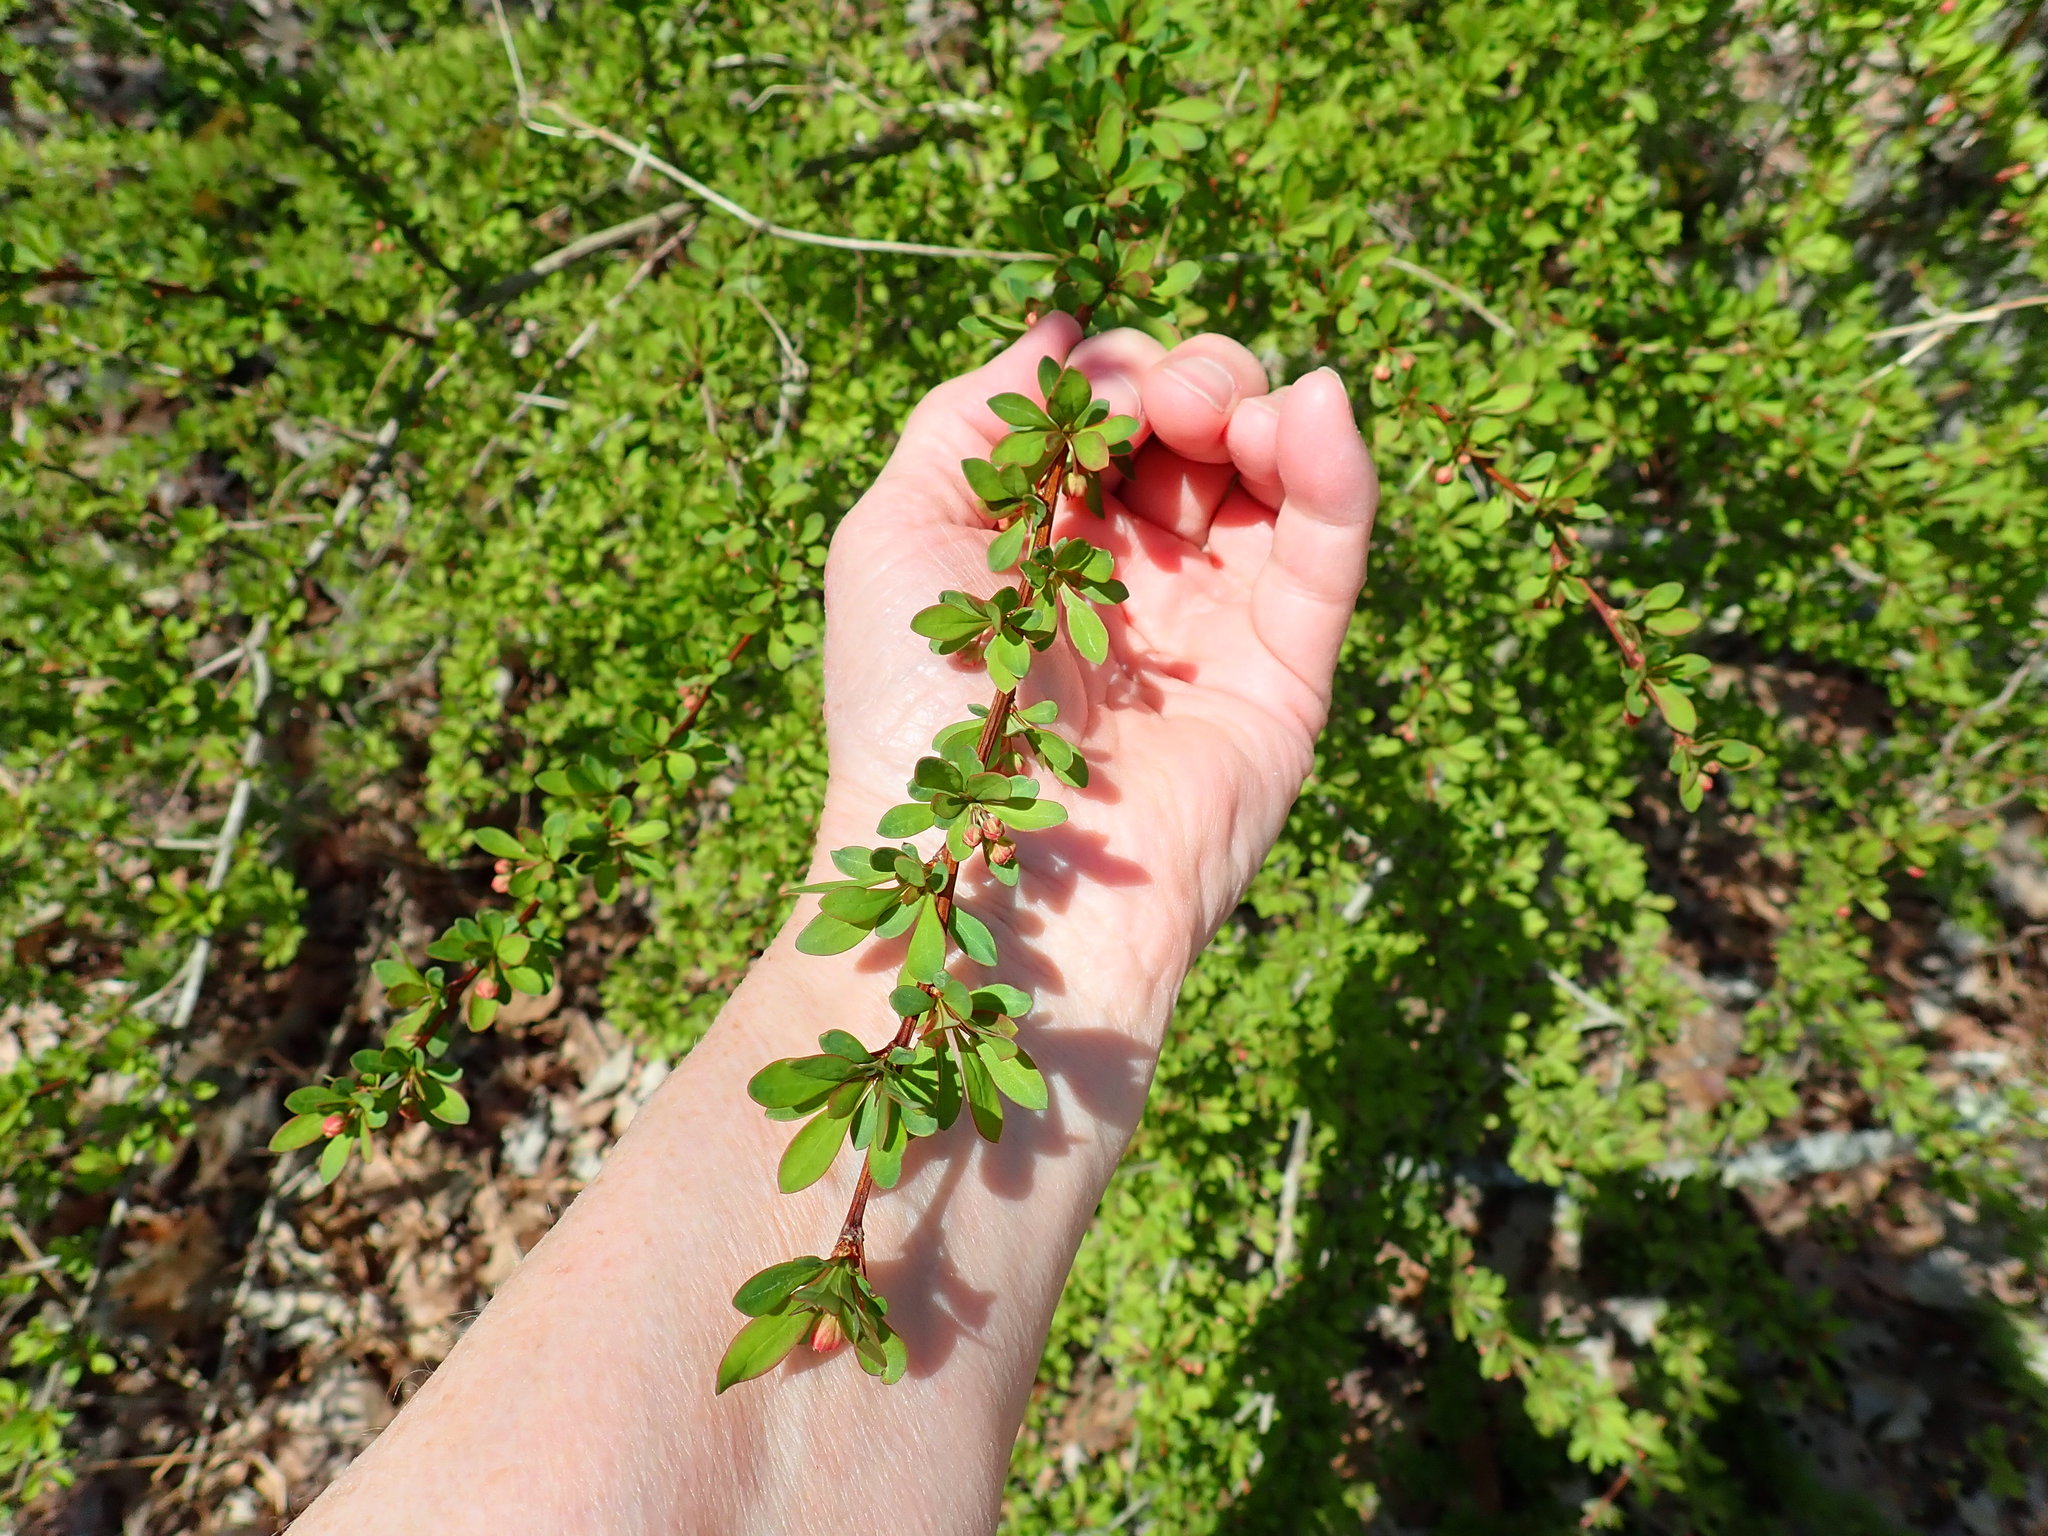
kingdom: Plantae
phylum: Tracheophyta
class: Magnoliopsida
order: Ranunculales
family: Berberidaceae
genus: Berberis
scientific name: Berberis thunbergii
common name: Japanese barberry
